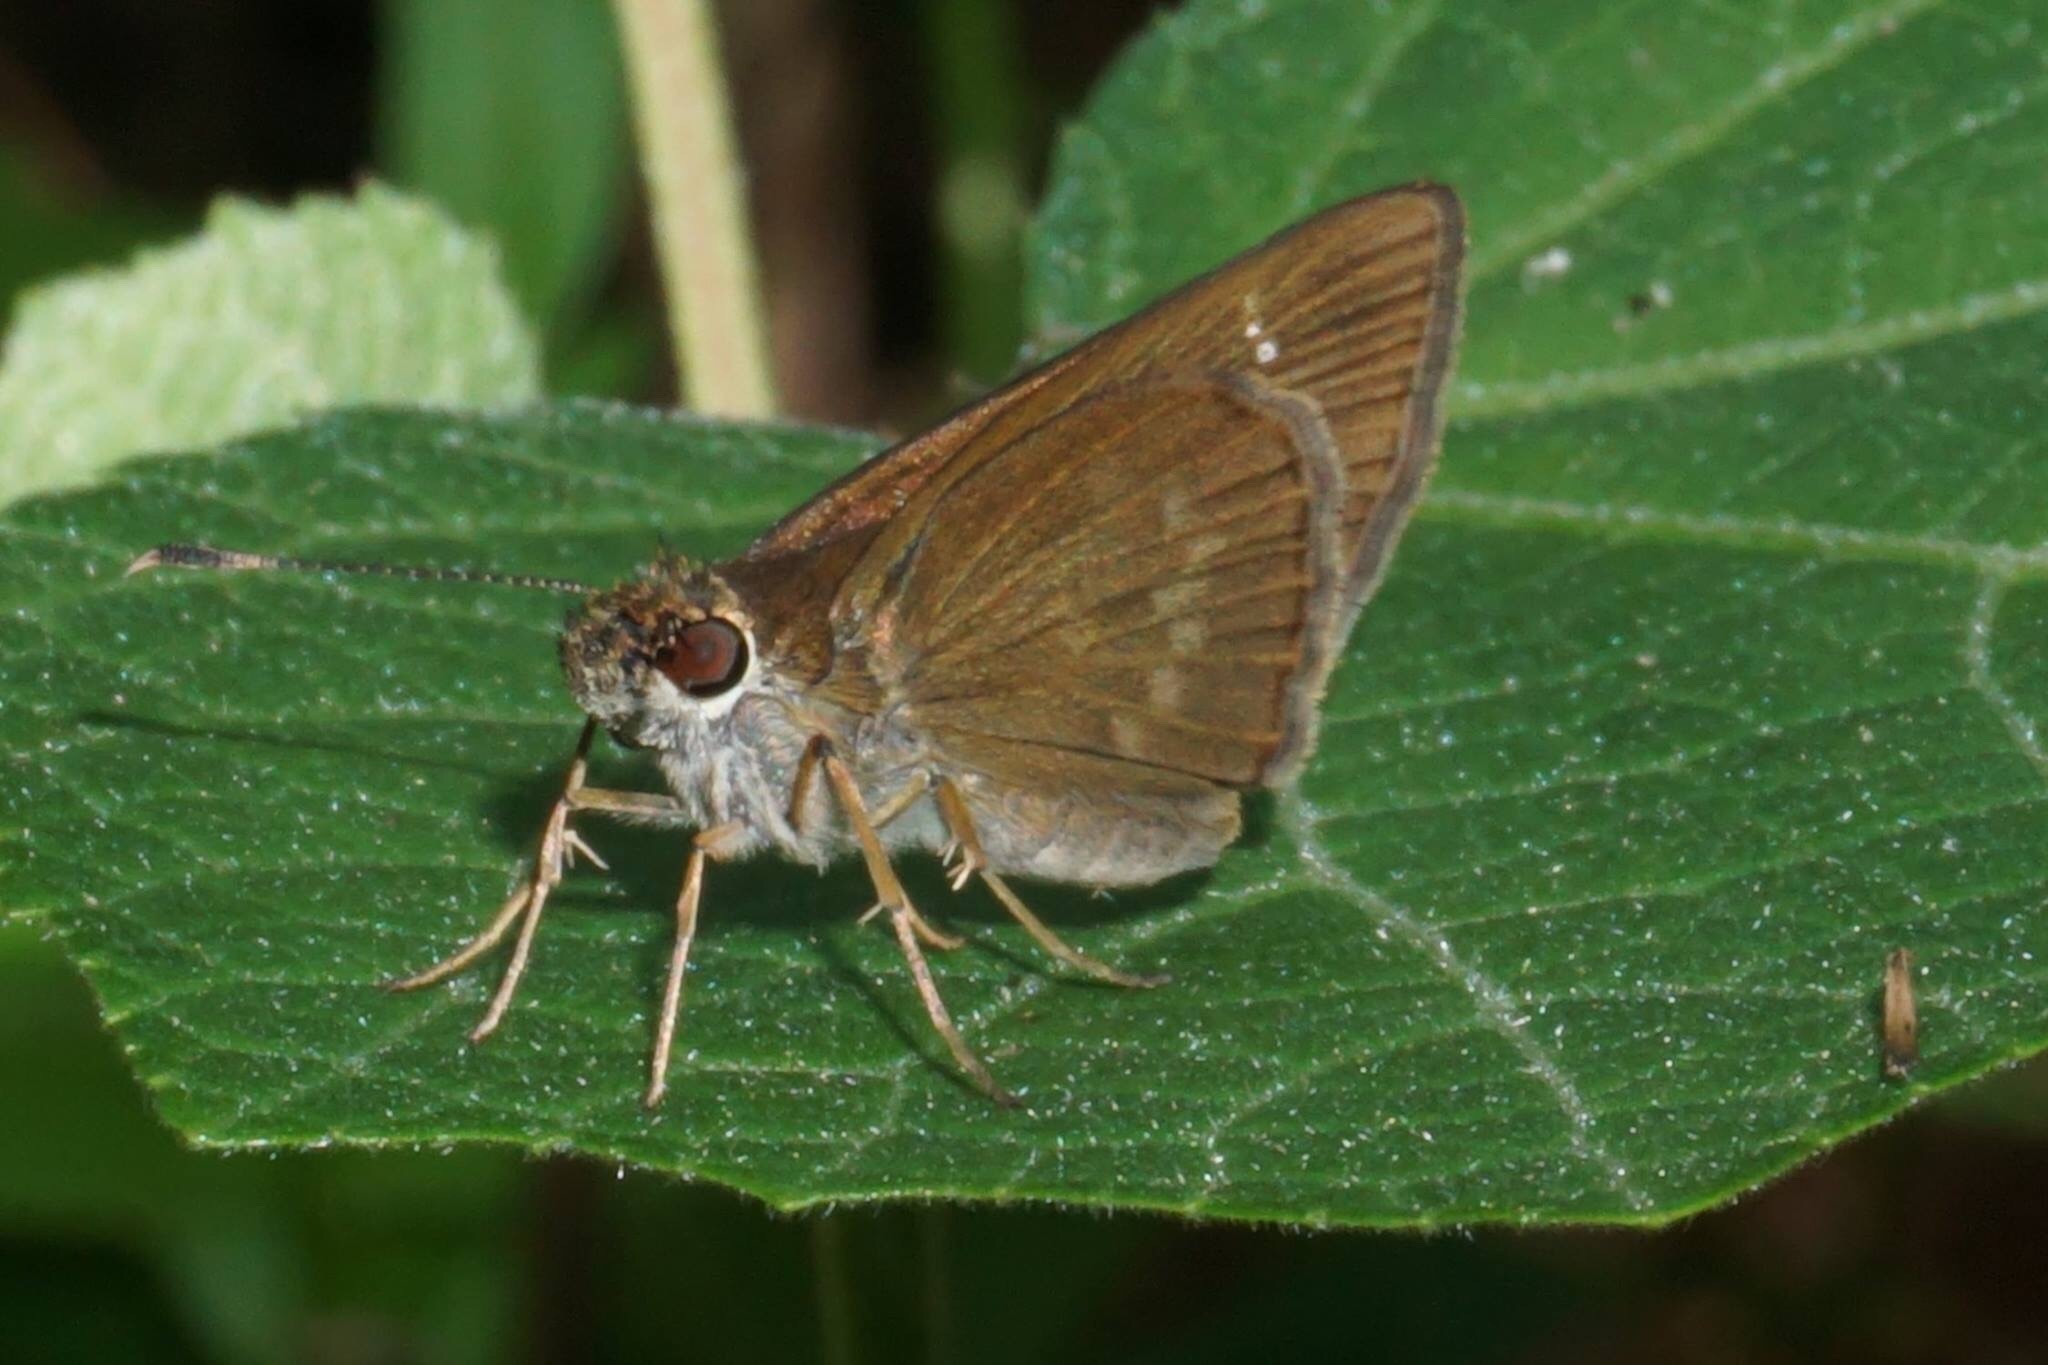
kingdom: Animalia
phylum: Arthropoda
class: Insecta
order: Lepidoptera
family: Hesperiidae
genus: Cymaenes
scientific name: Cymaenes tripunctus
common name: Dingy dotted skipper
